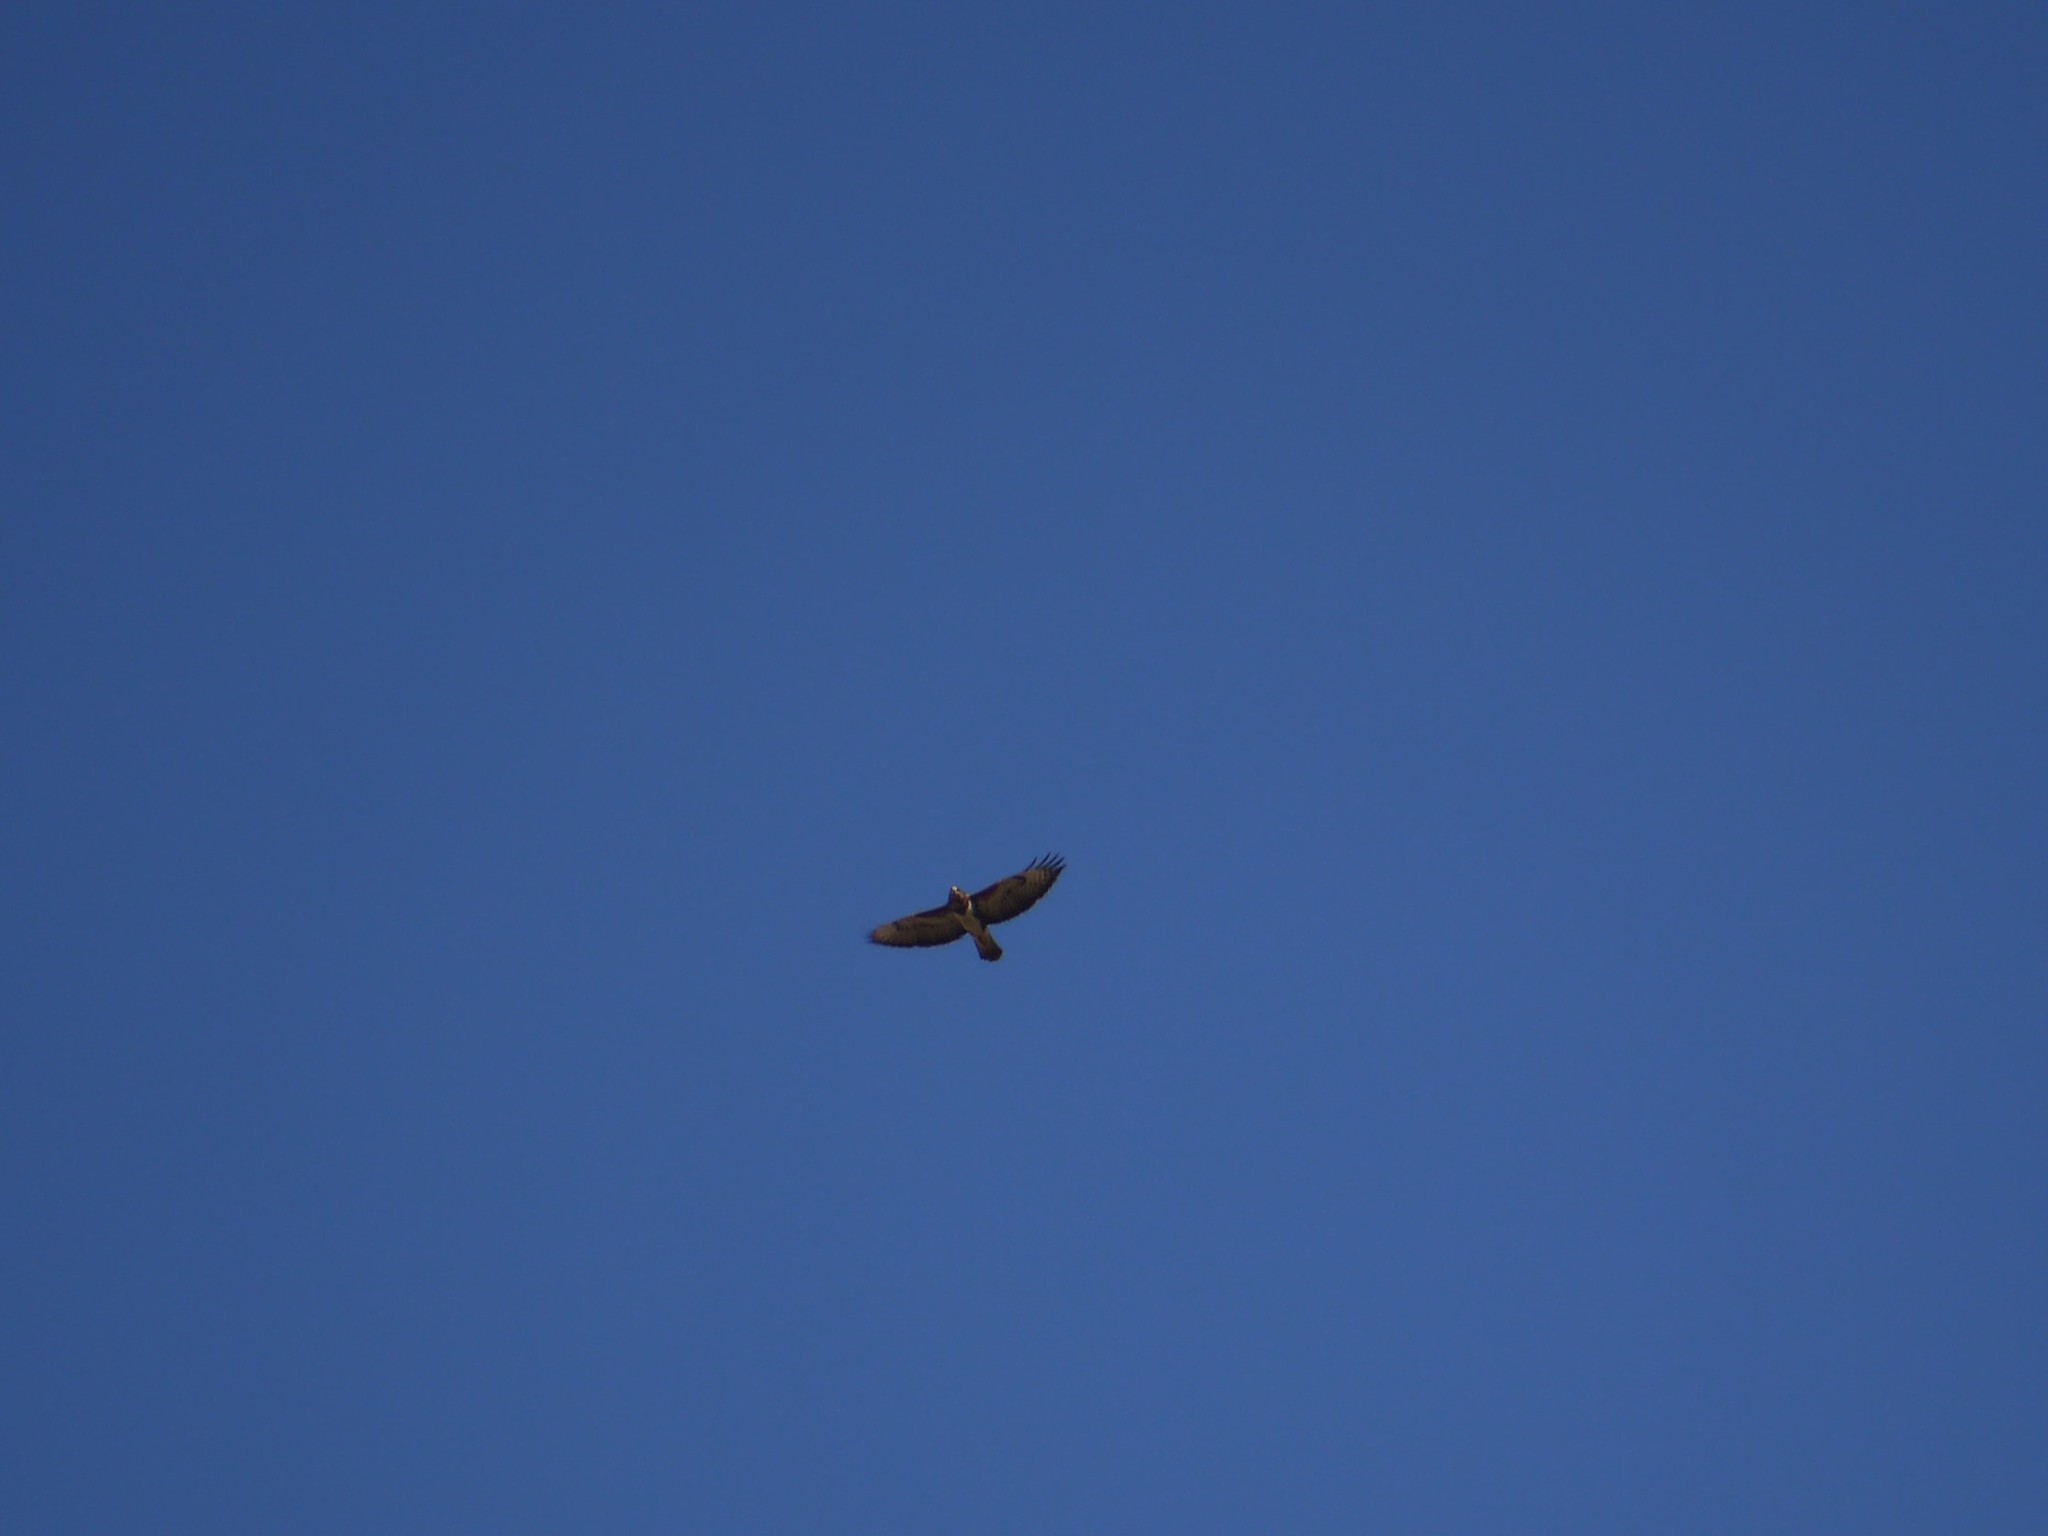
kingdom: Animalia
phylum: Chordata
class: Aves
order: Accipitriformes
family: Accipitridae
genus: Buteo
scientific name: Buteo buteo
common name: Common buzzard
